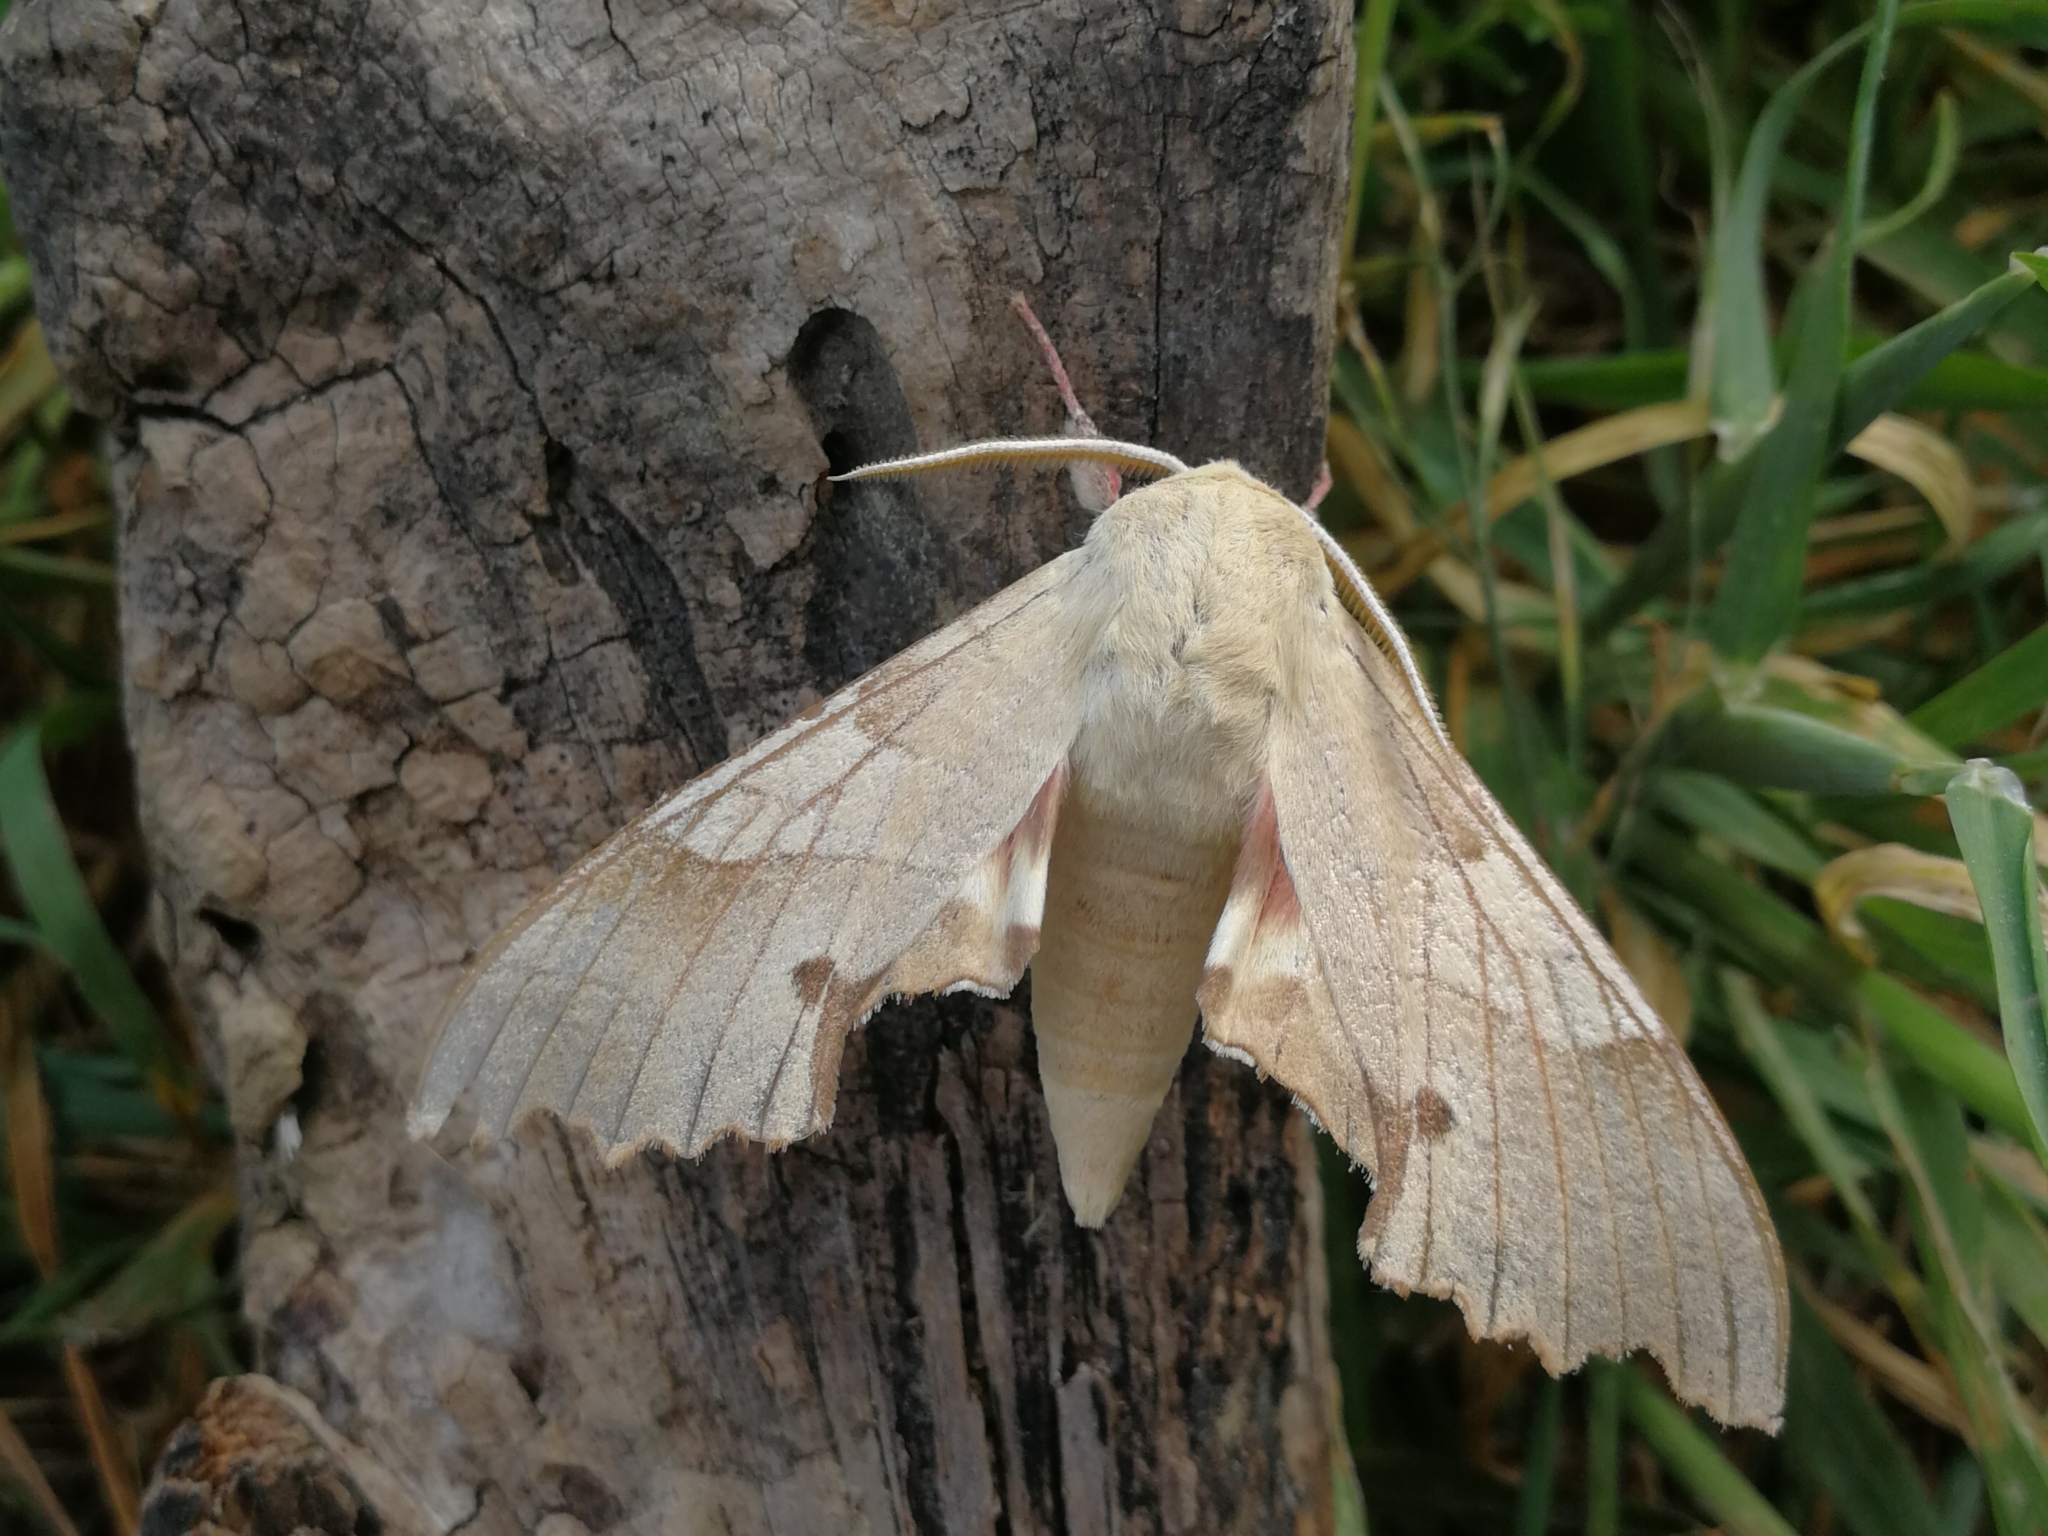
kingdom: Animalia
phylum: Arthropoda
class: Insecta
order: Lepidoptera
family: Sphingidae
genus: Marumba
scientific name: Marumba quercus
